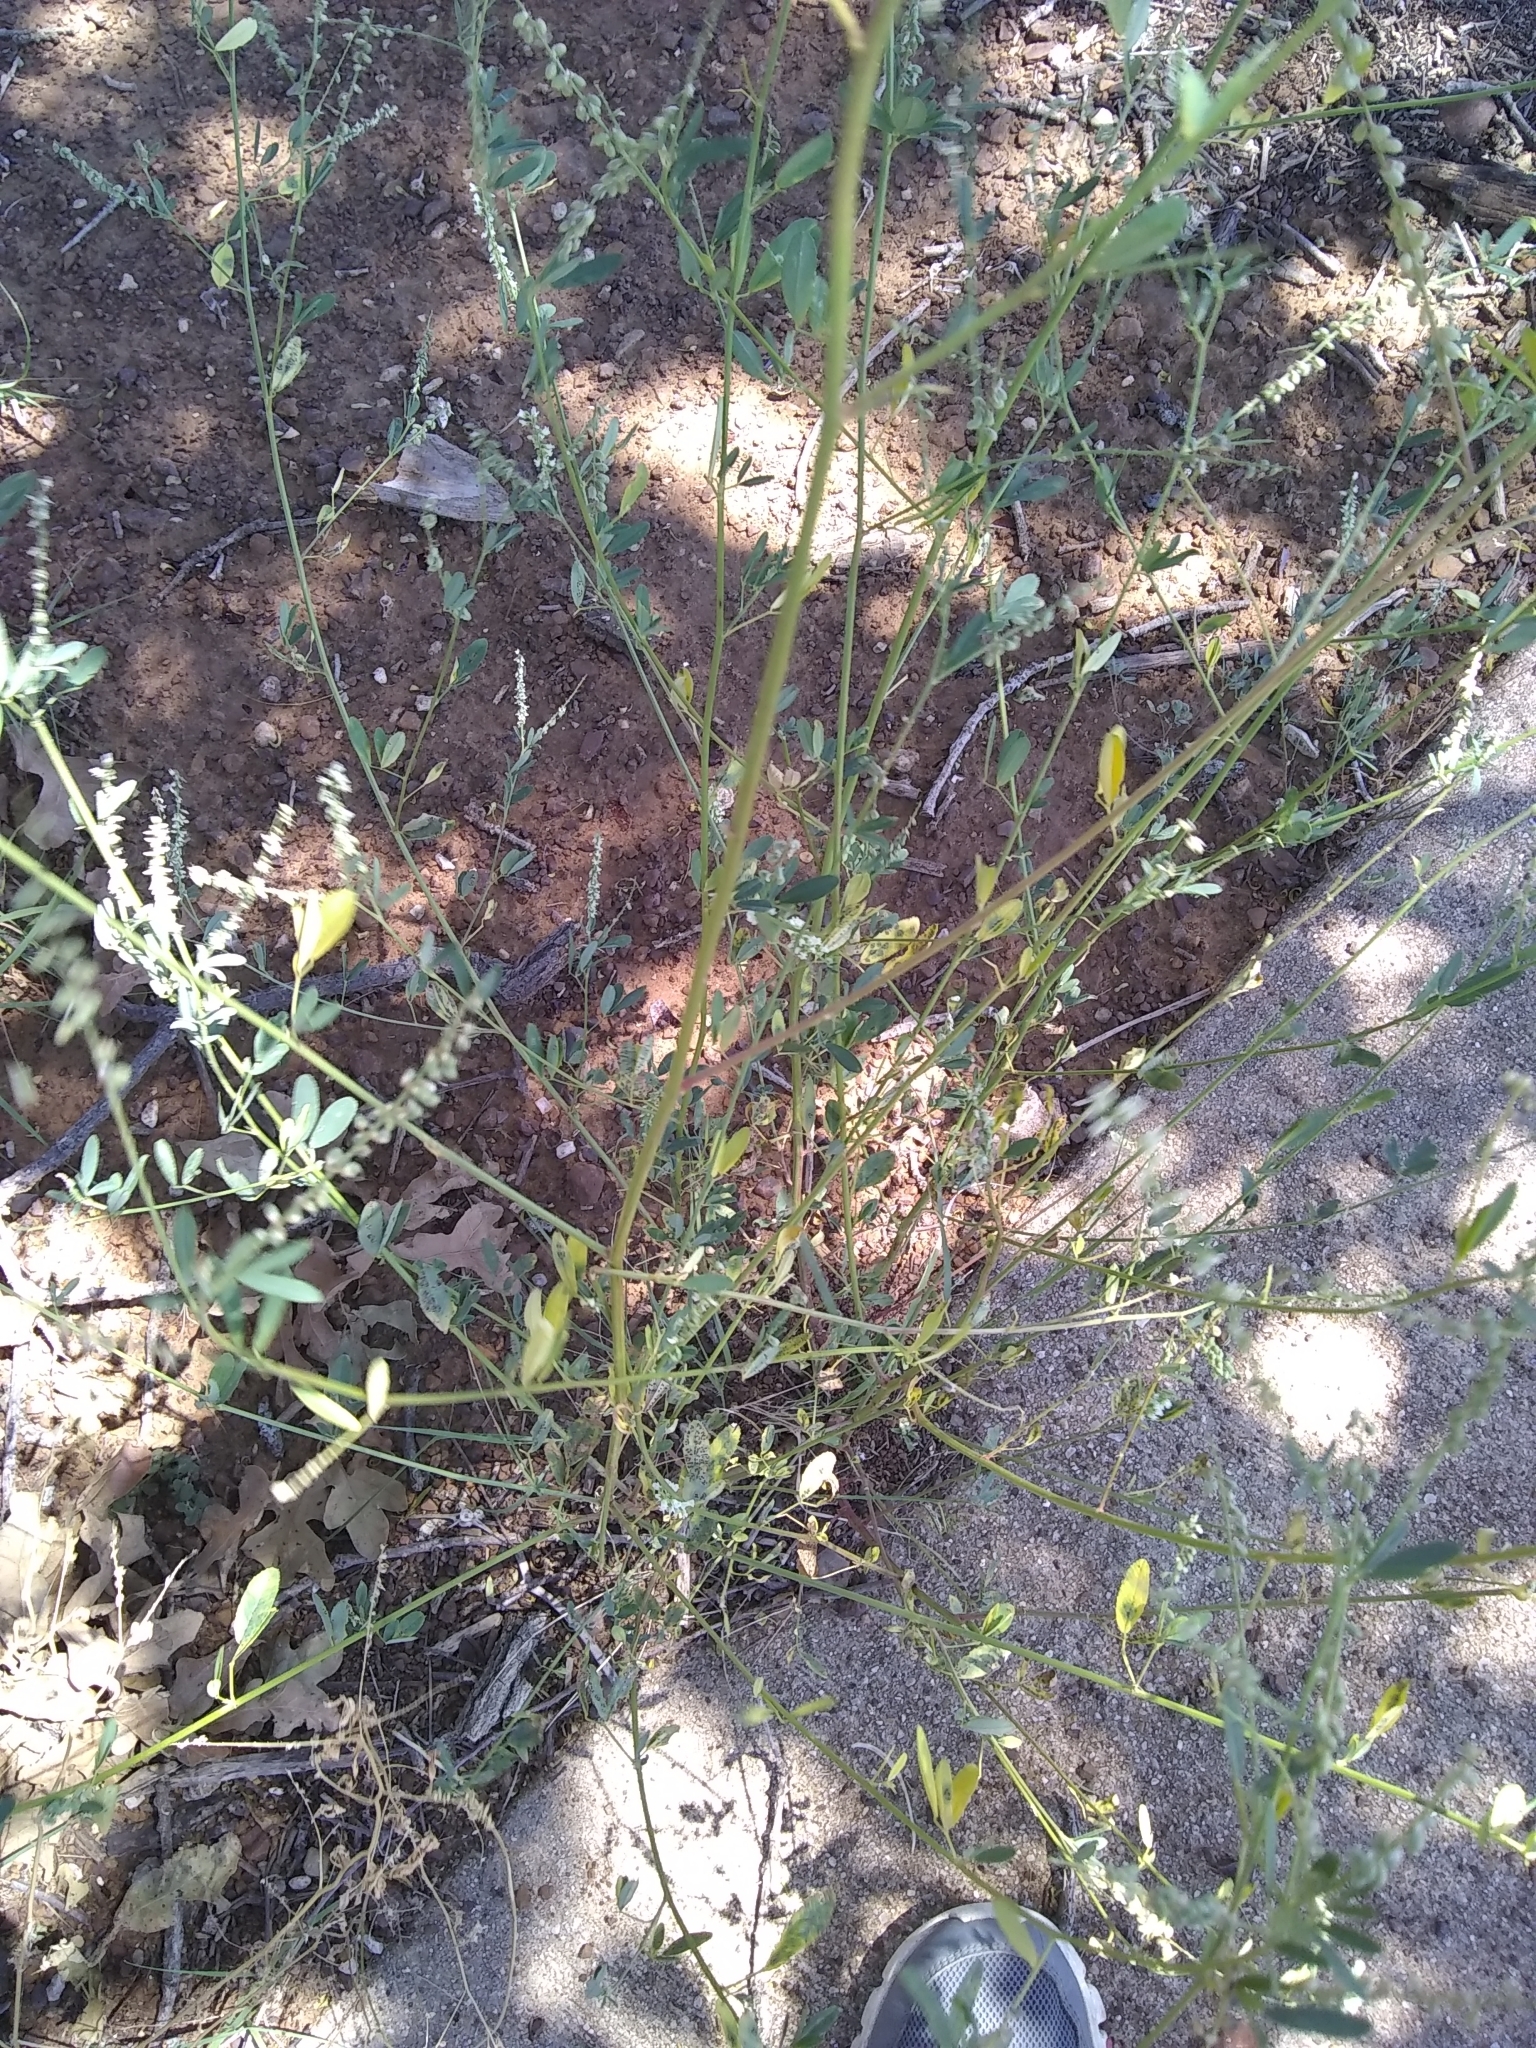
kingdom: Plantae
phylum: Tracheophyta
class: Magnoliopsida
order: Fabales
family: Fabaceae
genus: Melilotus
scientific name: Melilotus albus
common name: White melilot
